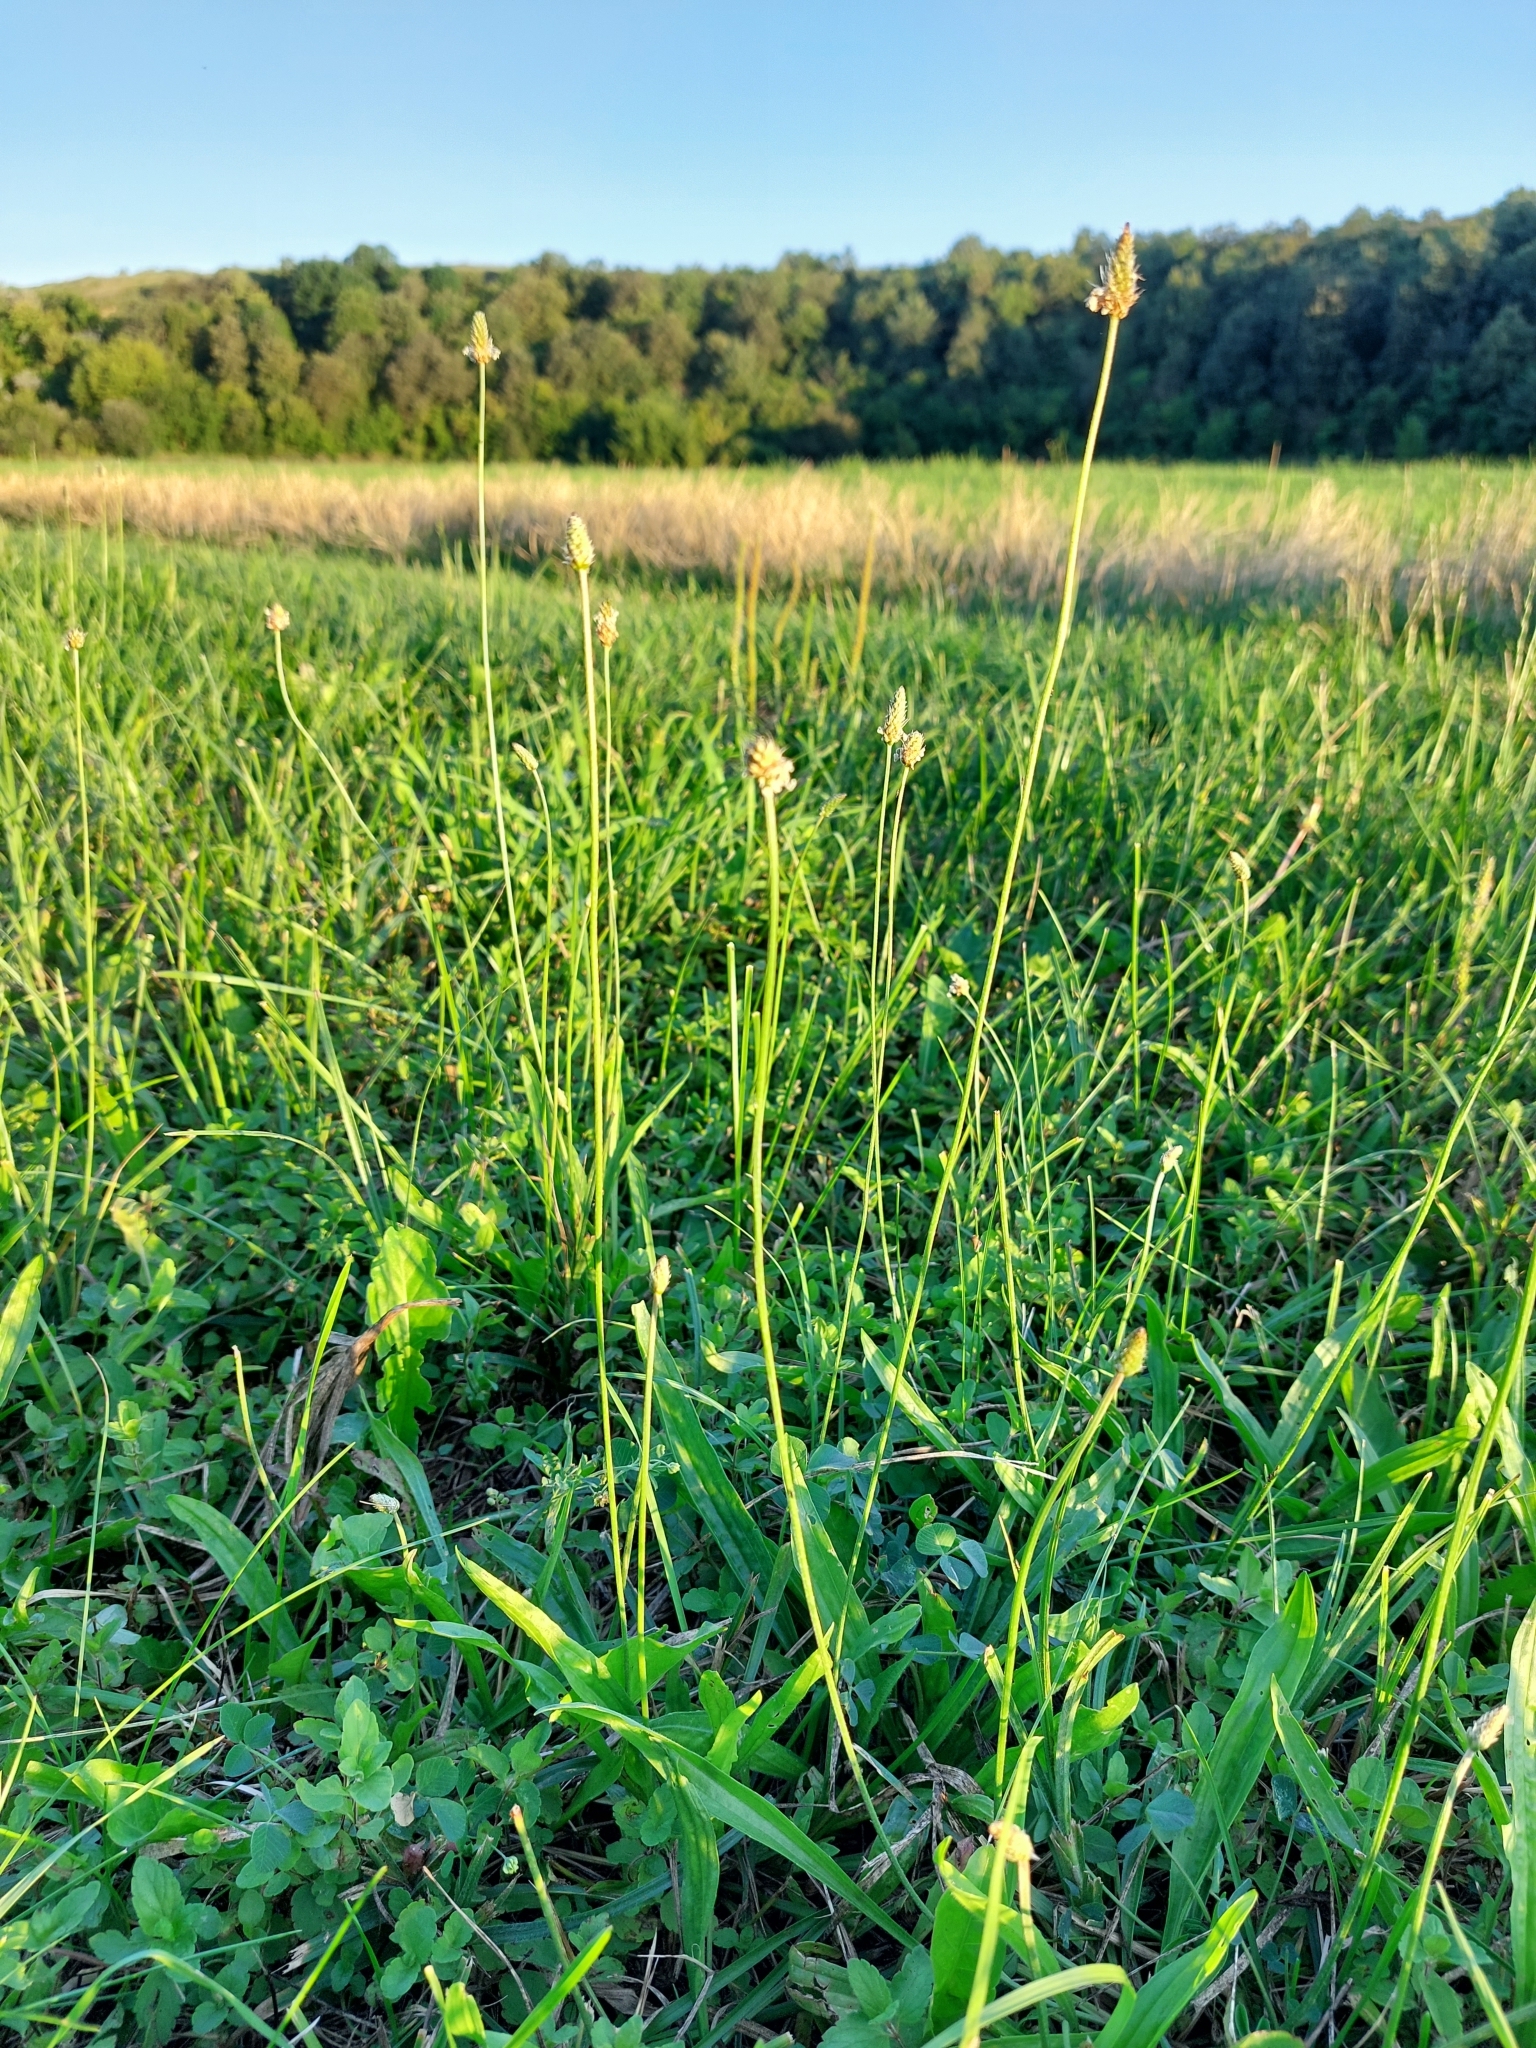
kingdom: Plantae
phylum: Tracheophyta
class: Magnoliopsida
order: Lamiales
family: Plantaginaceae
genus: Plantago
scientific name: Plantago lanceolata
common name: Ribwort plantain
